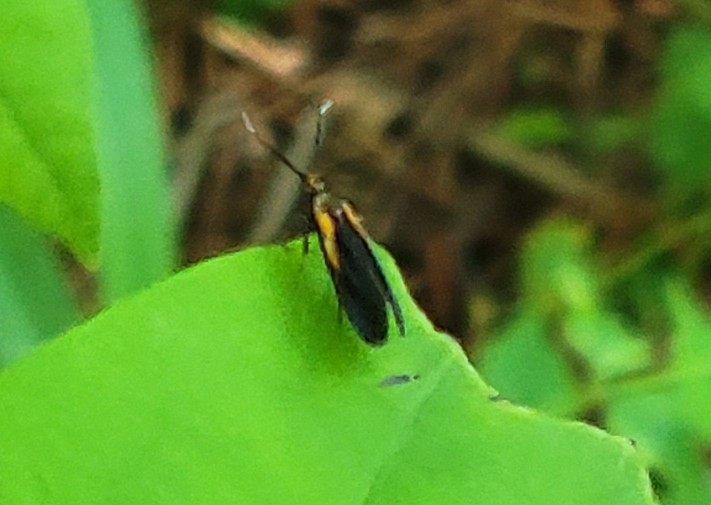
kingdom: Animalia
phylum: Arthropoda
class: Insecta
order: Lepidoptera
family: Oecophoridae
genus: Mathildana
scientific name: Mathildana newmanella
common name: Newman's mathildana moth
